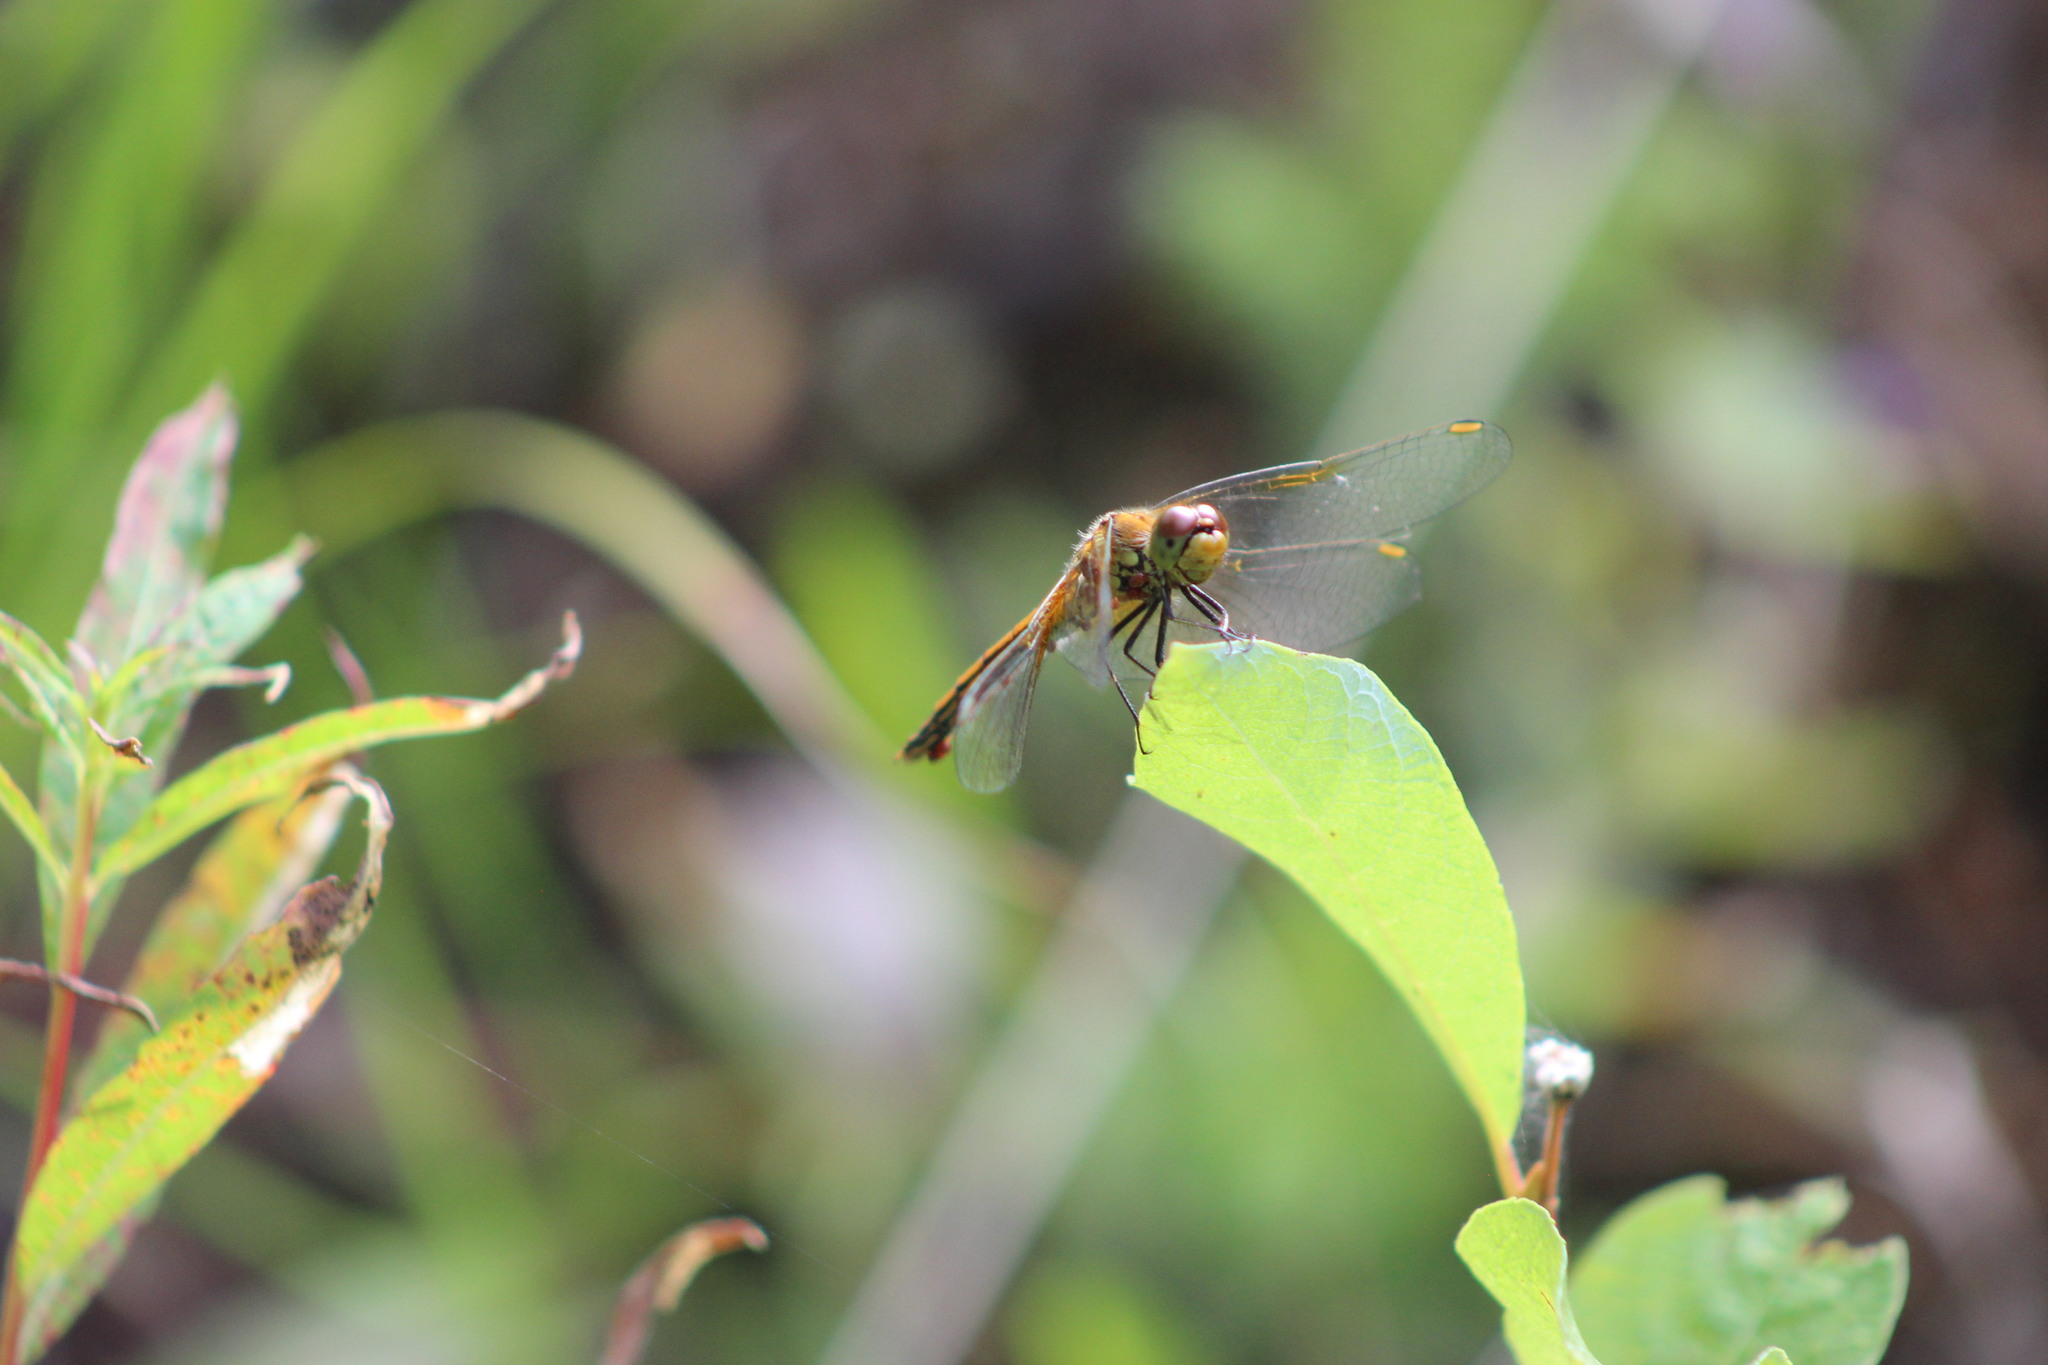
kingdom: Animalia
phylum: Arthropoda
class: Insecta
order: Odonata
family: Libellulidae
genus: Sympetrum
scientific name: Sympetrum flaveolum
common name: Yellow-winged darter
